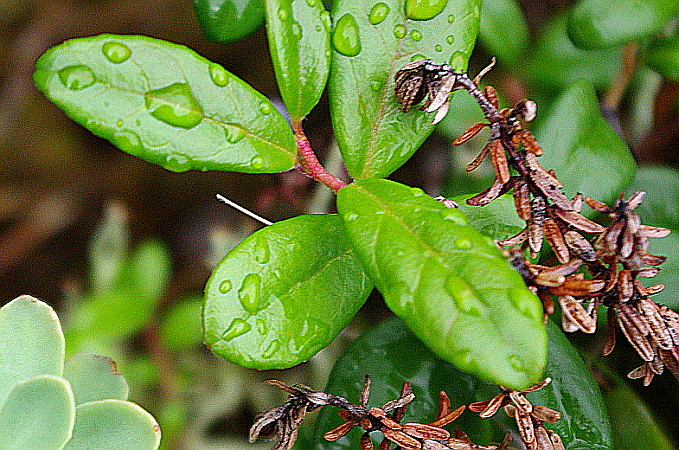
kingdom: Plantae
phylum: Tracheophyta
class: Magnoliopsida
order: Ericales
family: Ericaceae
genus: Vaccinium
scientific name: Vaccinium vitis-idaea
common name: Cowberry
